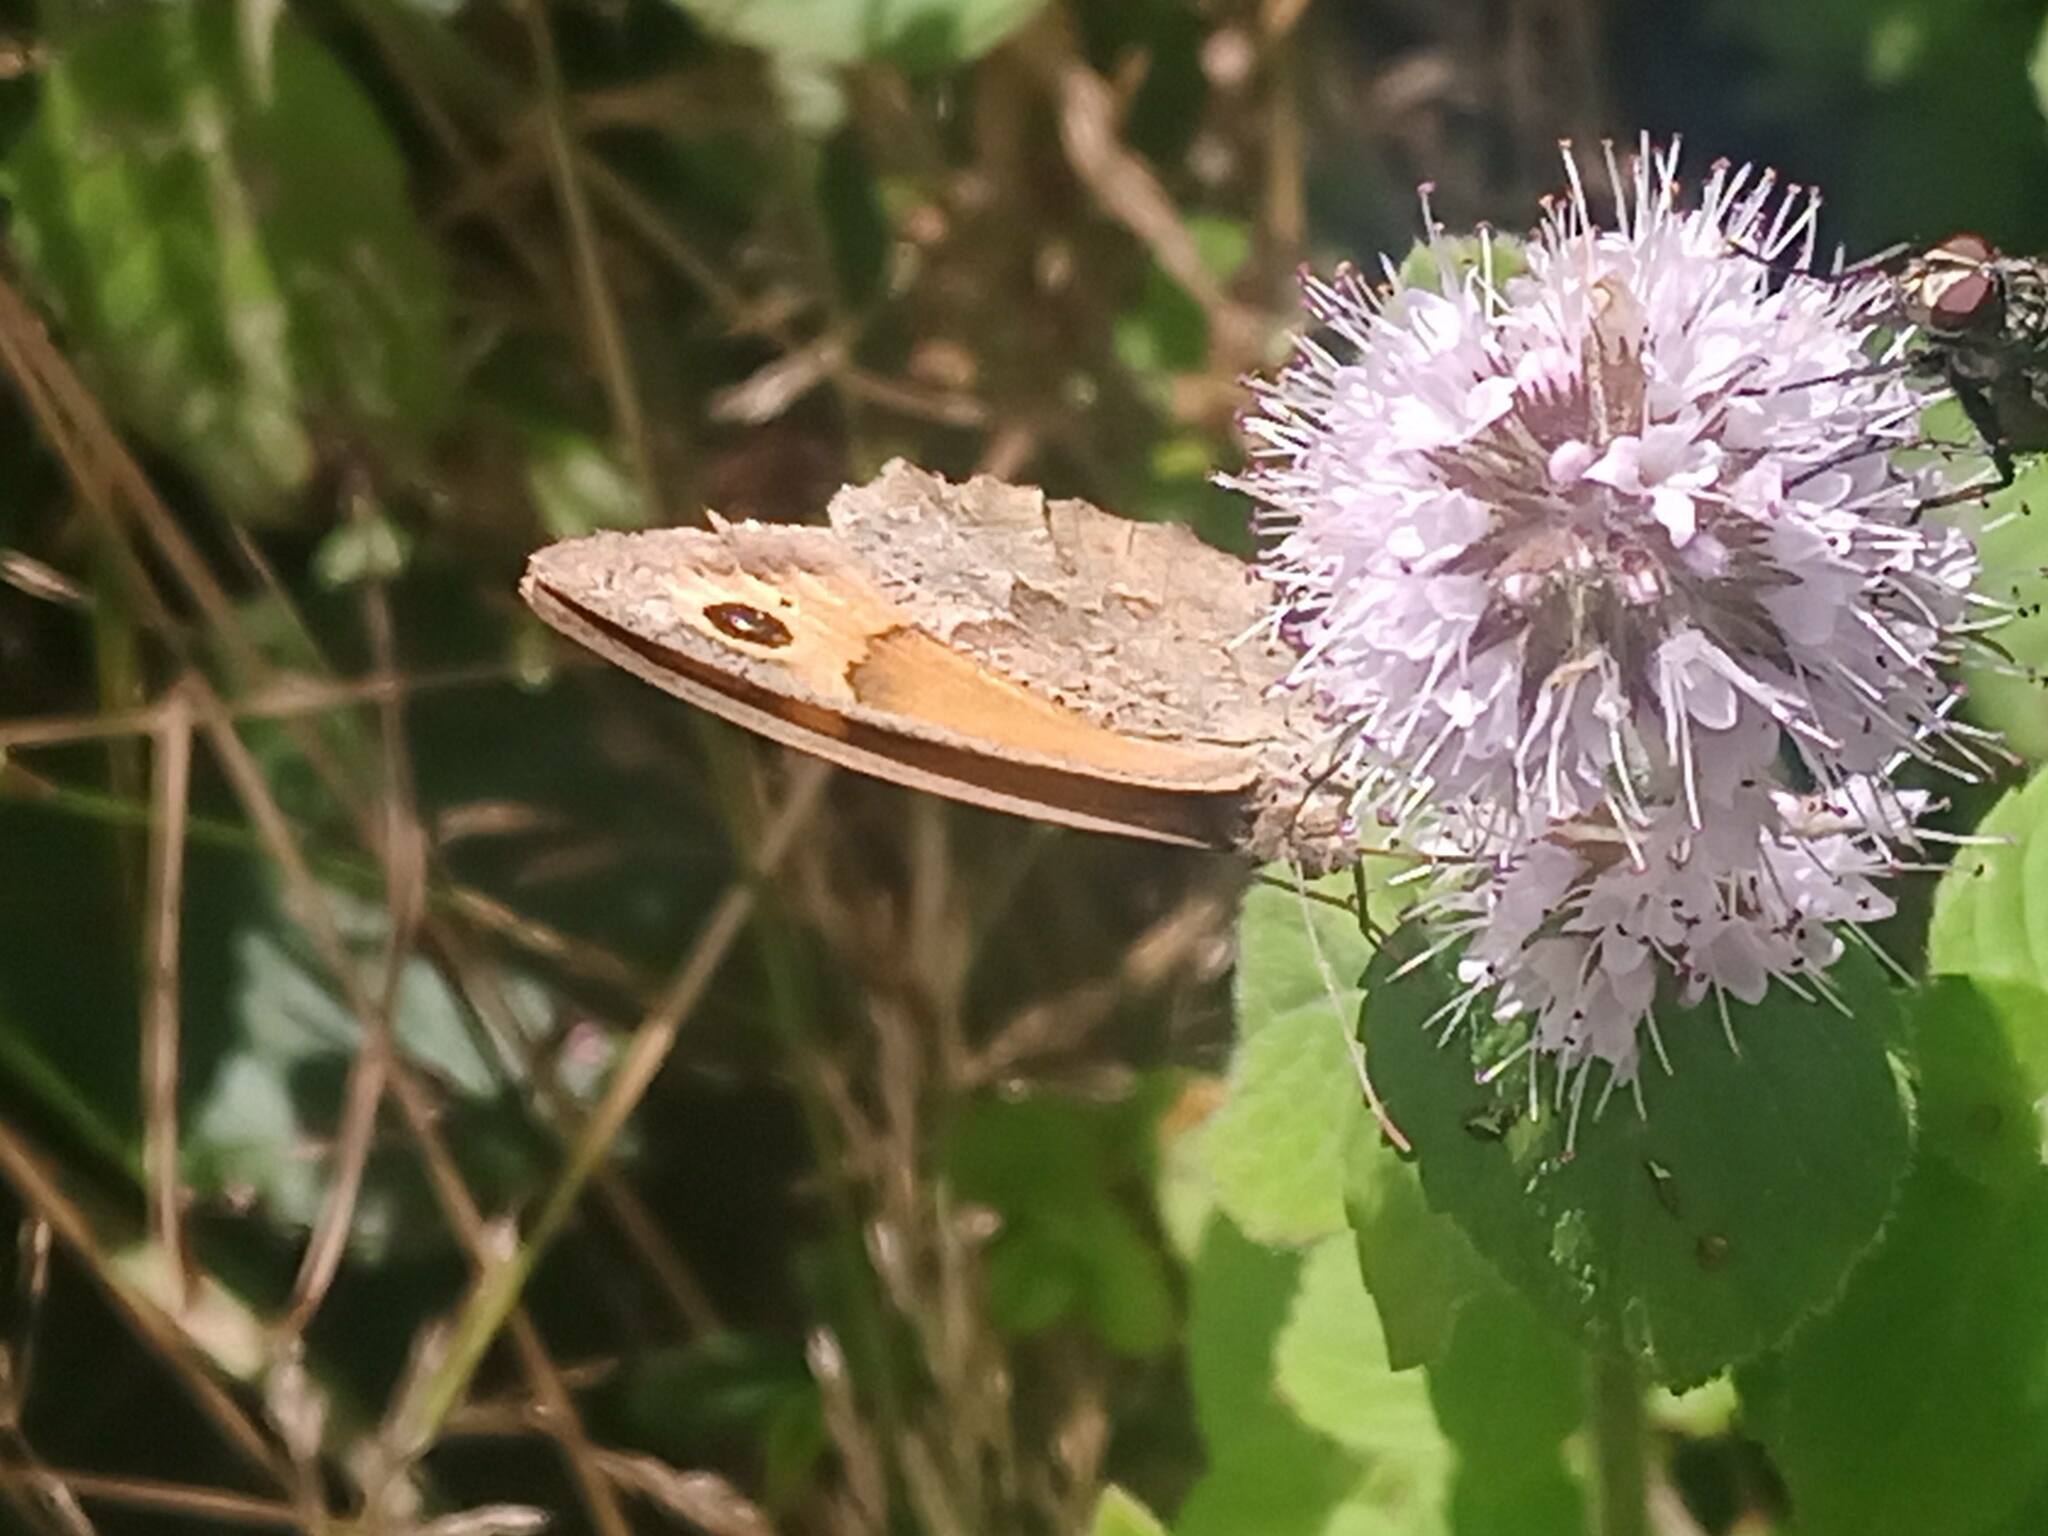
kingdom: Animalia
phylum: Arthropoda
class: Insecta
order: Lepidoptera
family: Nymphalidae
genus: Maniola
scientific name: Maniola jurtina
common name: Meadow brown
